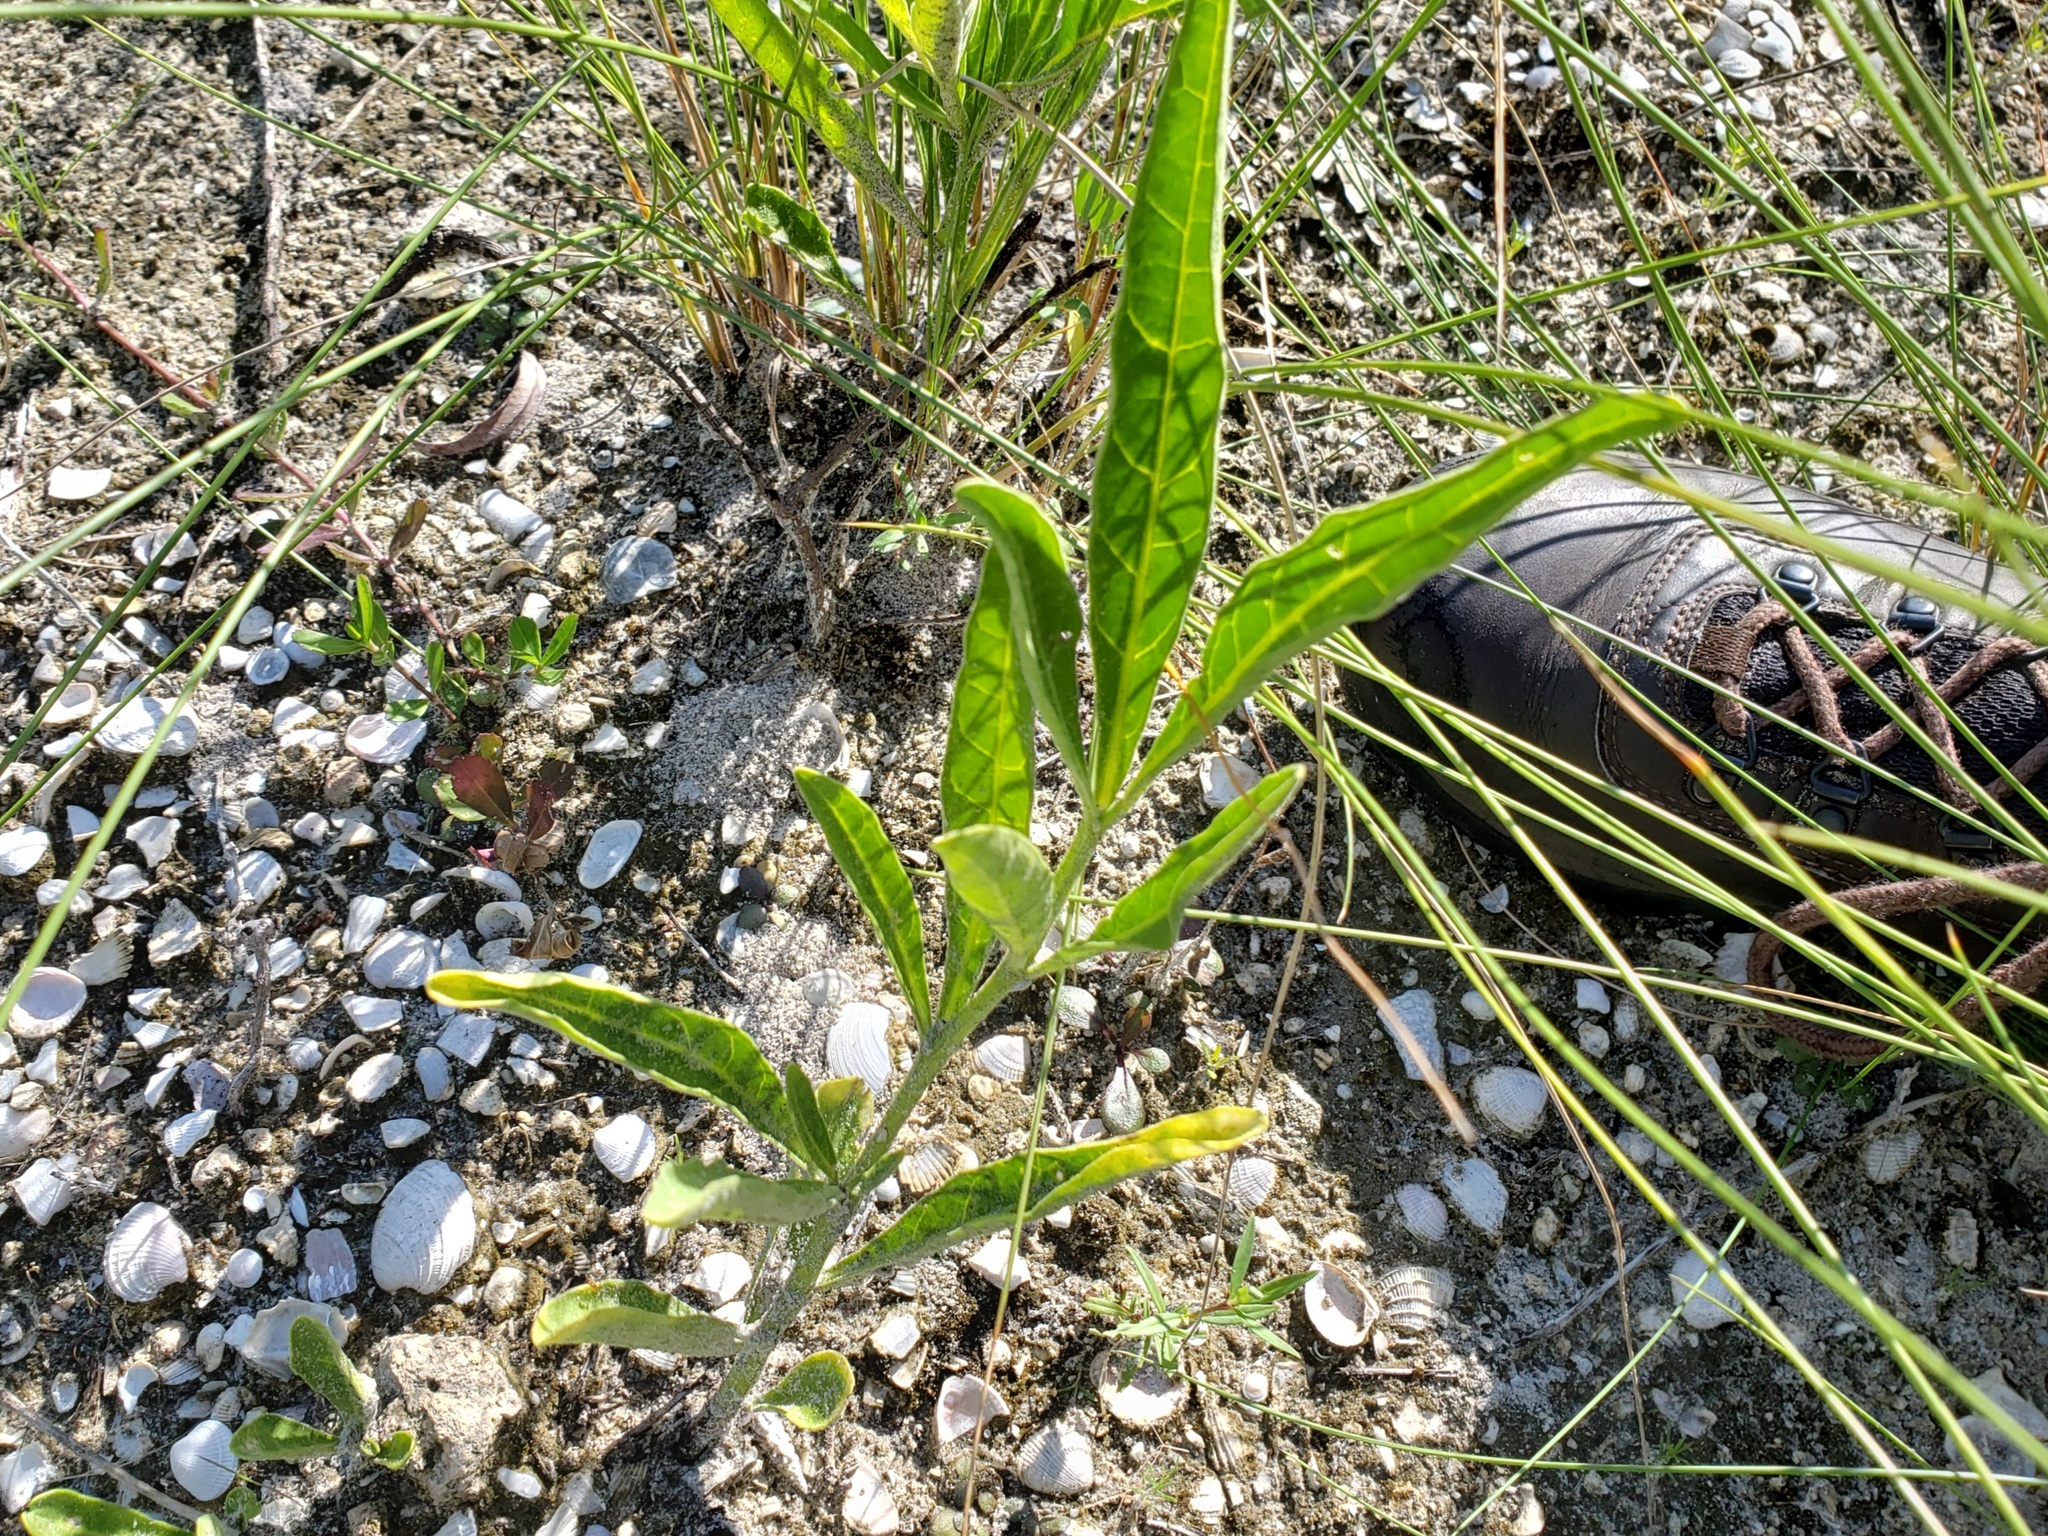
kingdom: Plantae
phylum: Tracheophyta
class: Magnoliopsida
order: Solanales
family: Solanaceae
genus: Physalis
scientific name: Physalis elliottii
